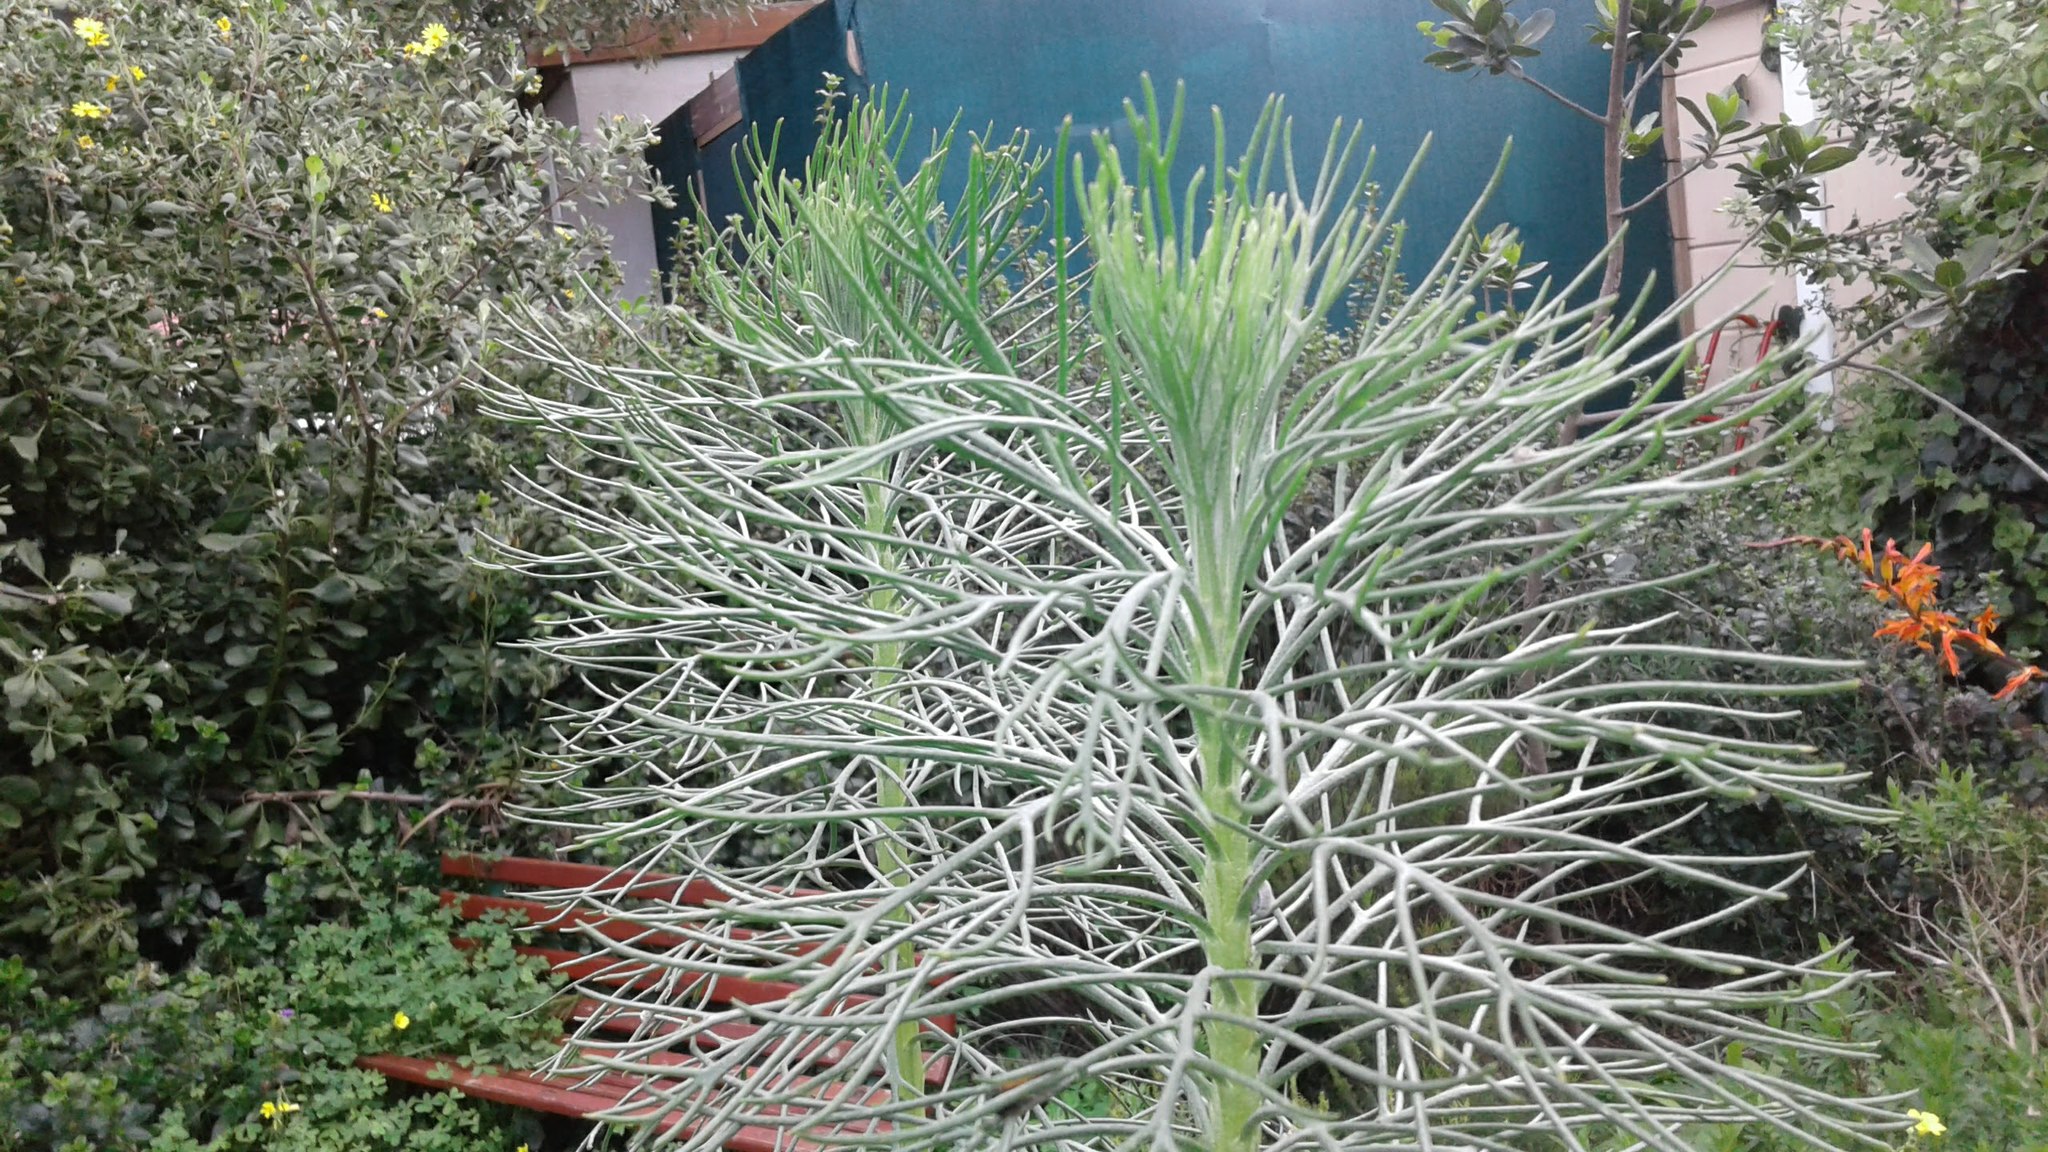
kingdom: Plantae
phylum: Tracheophyta
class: Magnoliopsida
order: Asterales
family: Asteraceae
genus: Hymenolepis
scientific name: Hymenolepis crithmifolia
